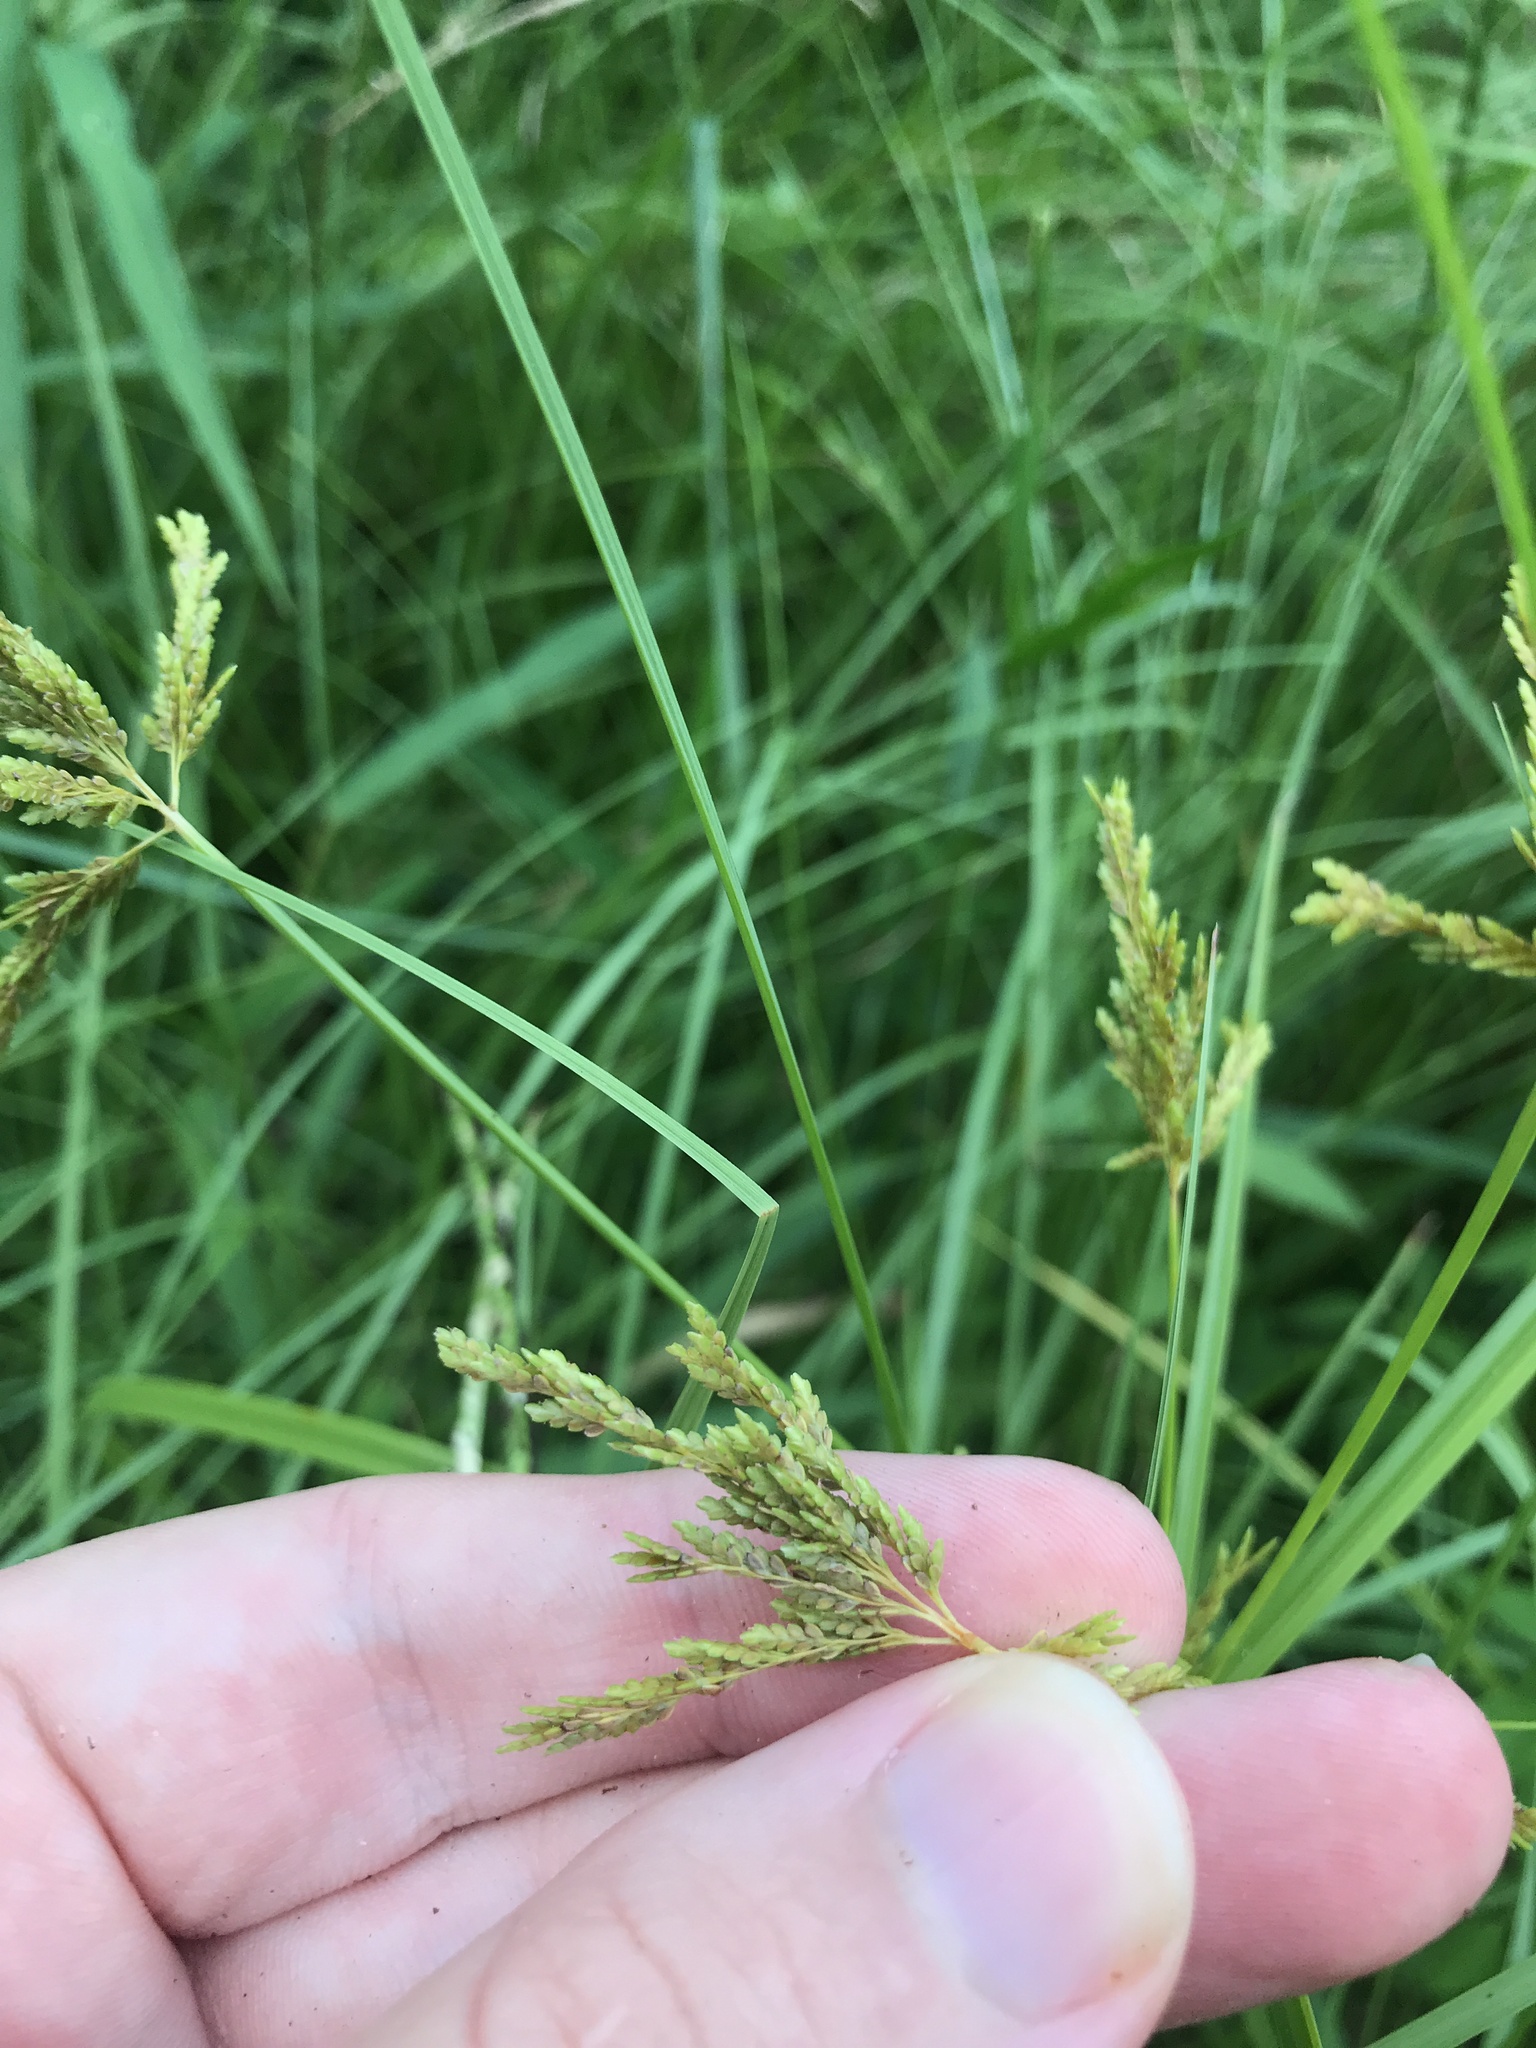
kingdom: Plantae
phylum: Tracheophyta
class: Liliopsida
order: Poales
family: Cyperaceae
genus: Cyperus
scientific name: Cyperus iria
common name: Ricefield flatsedge
